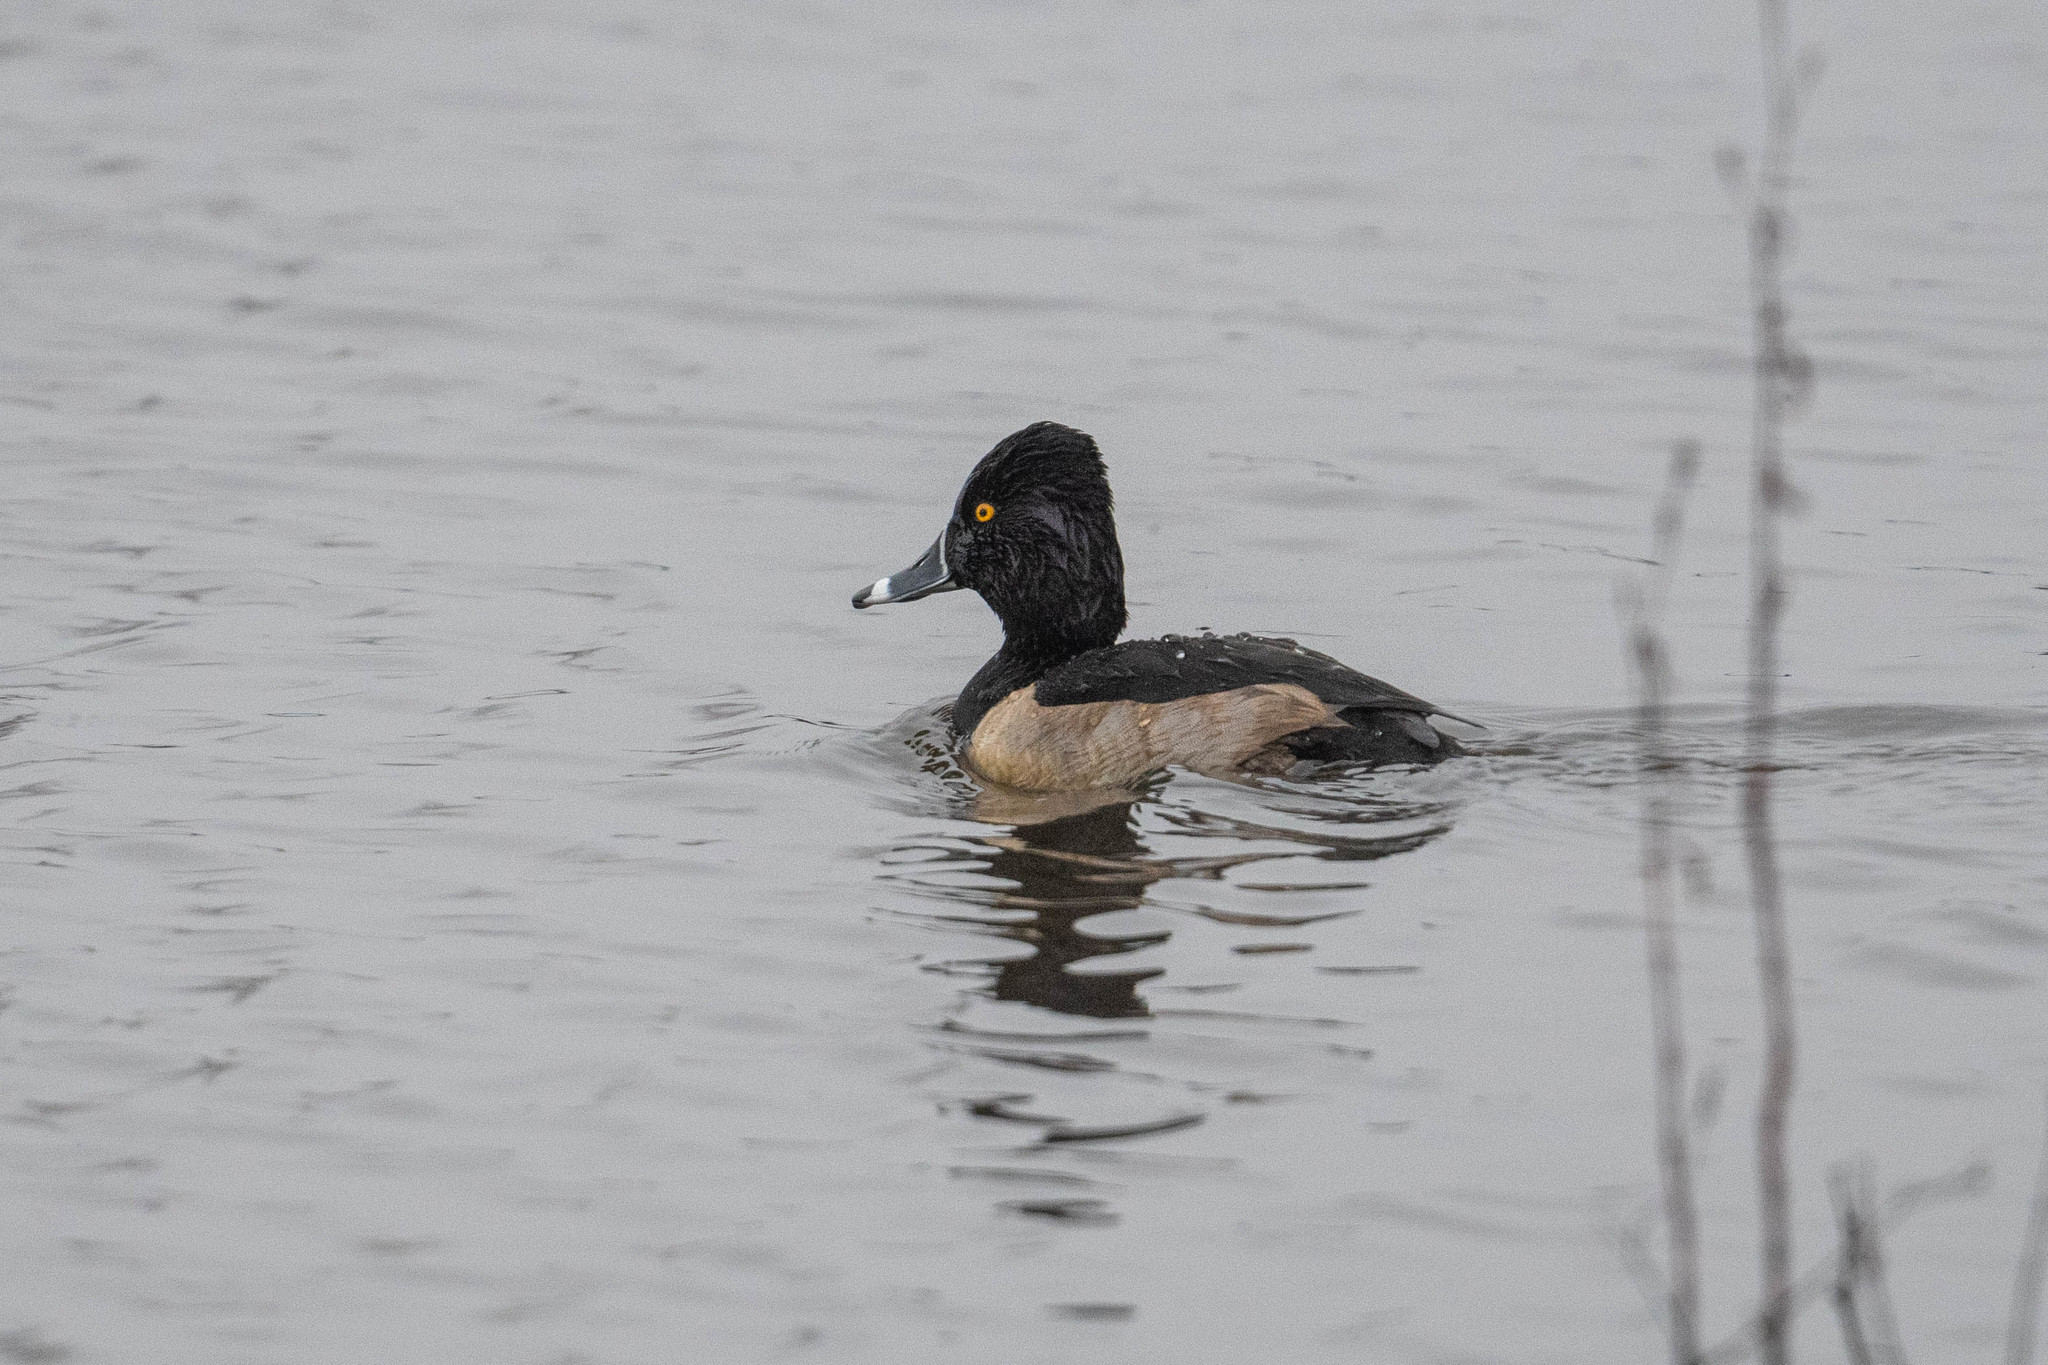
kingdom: Animalia
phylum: Chordata
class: Aves
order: Anseriformes
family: Anatidae
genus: Aythya
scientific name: Aythya collaris
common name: Ring-necked duck
